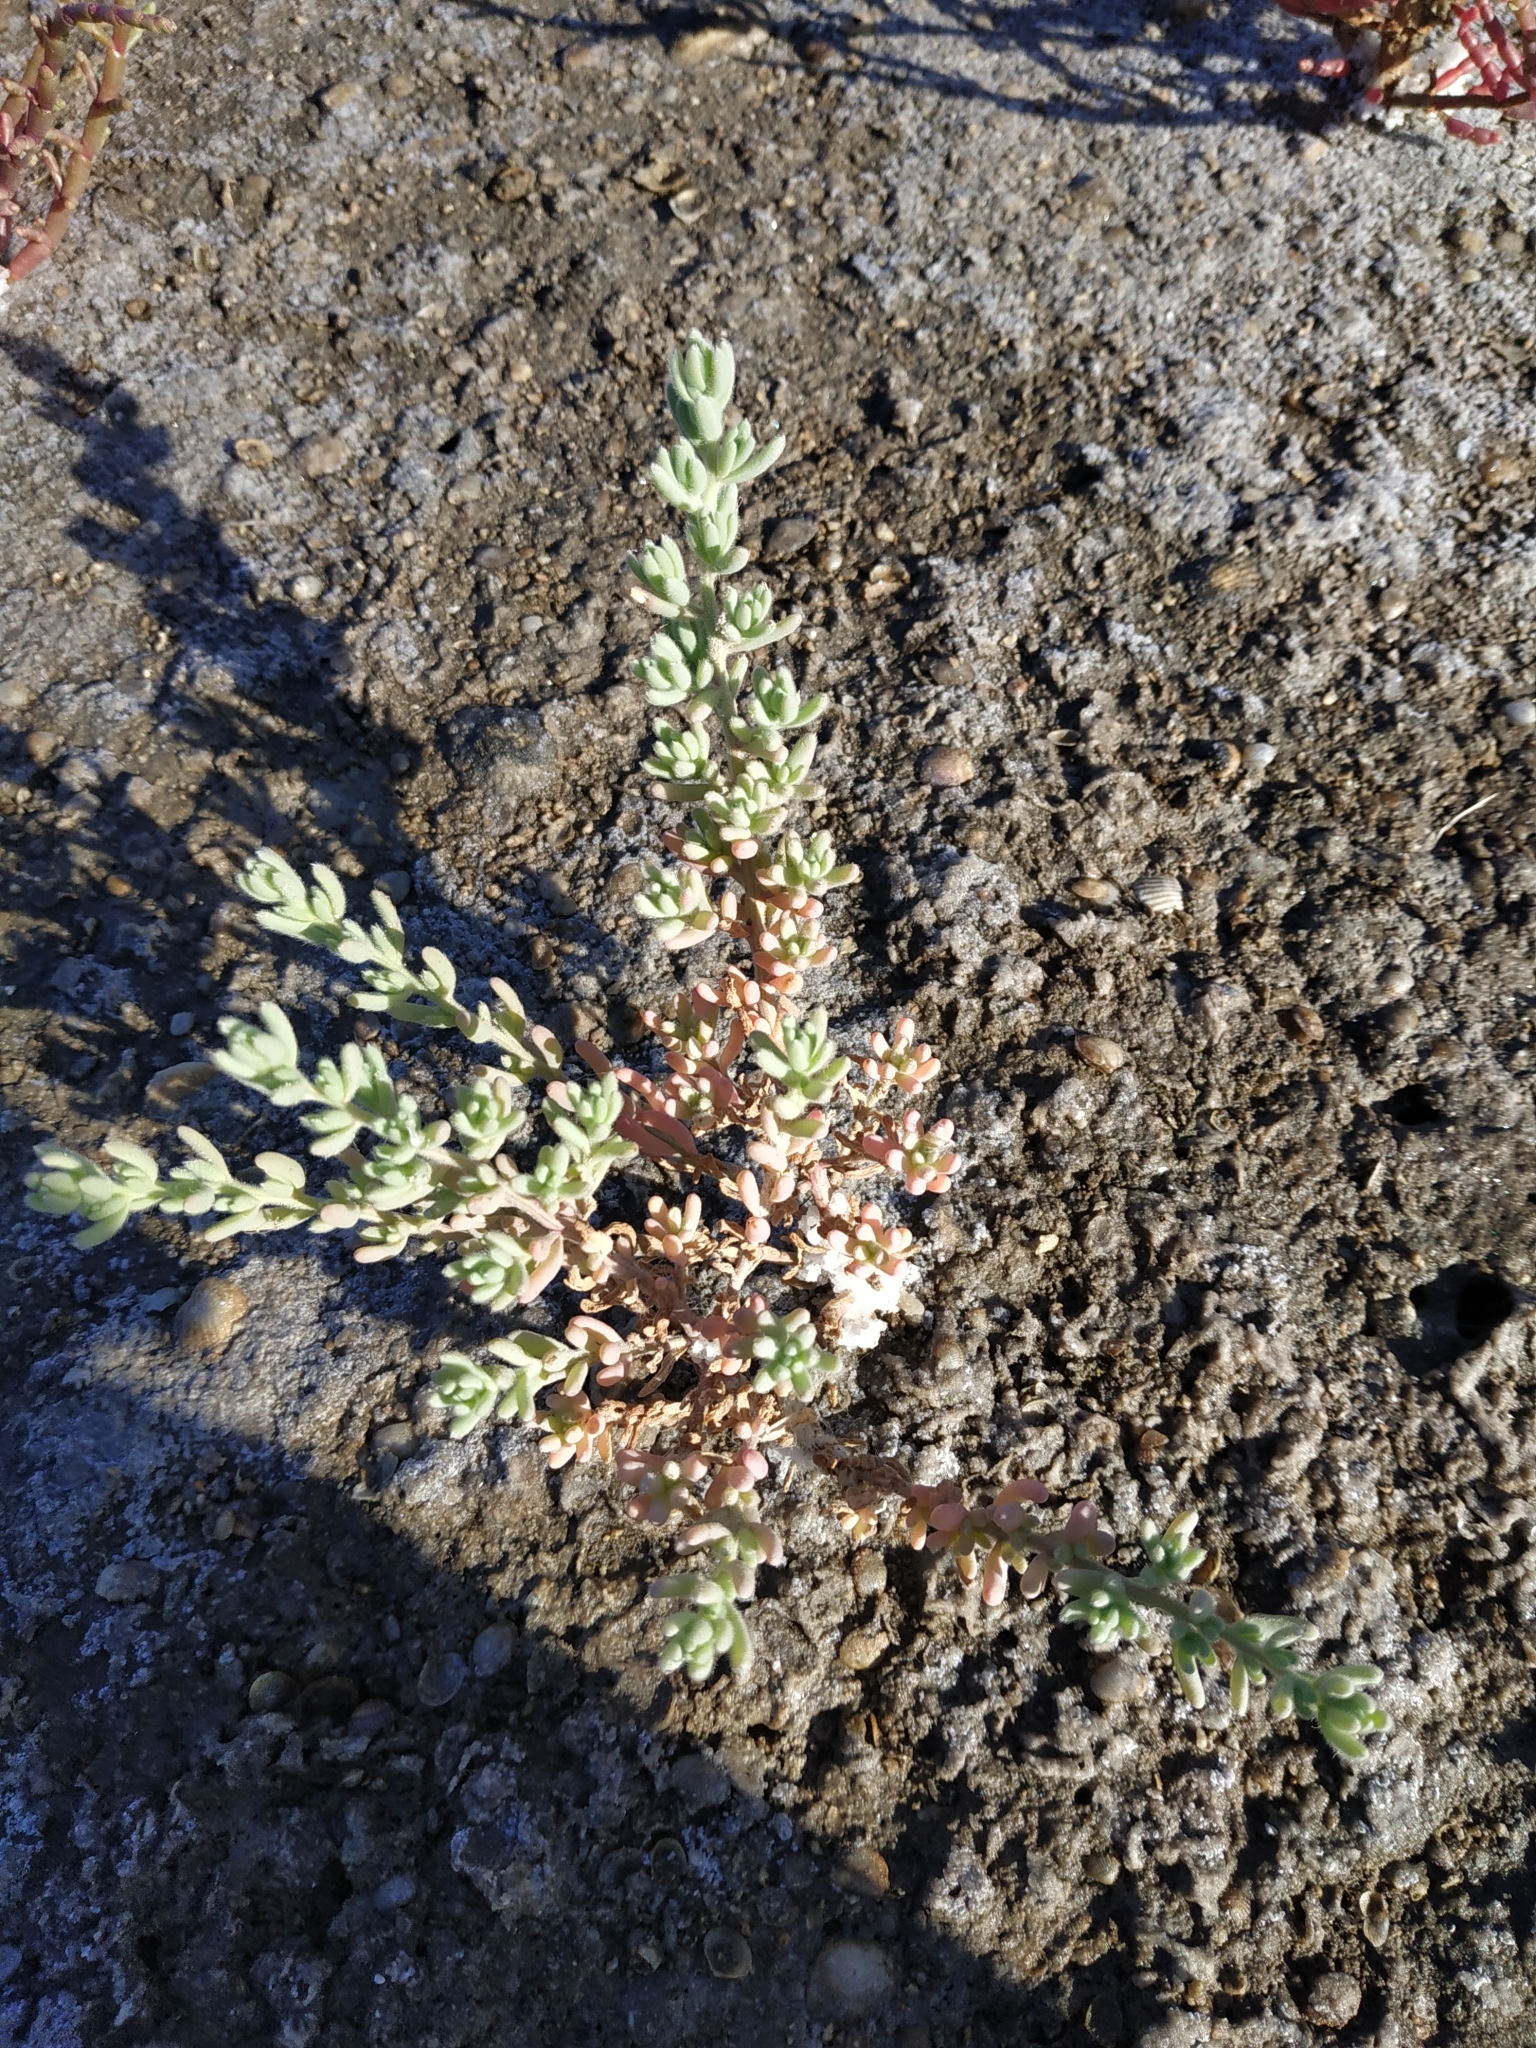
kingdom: Plantae
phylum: Tracheophyta
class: Magnoliopsida
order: Caryophyllales
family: Amaranthaceae
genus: Spirobassia
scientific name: Spirobassia hirsuta
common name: Hairy smotherweed
